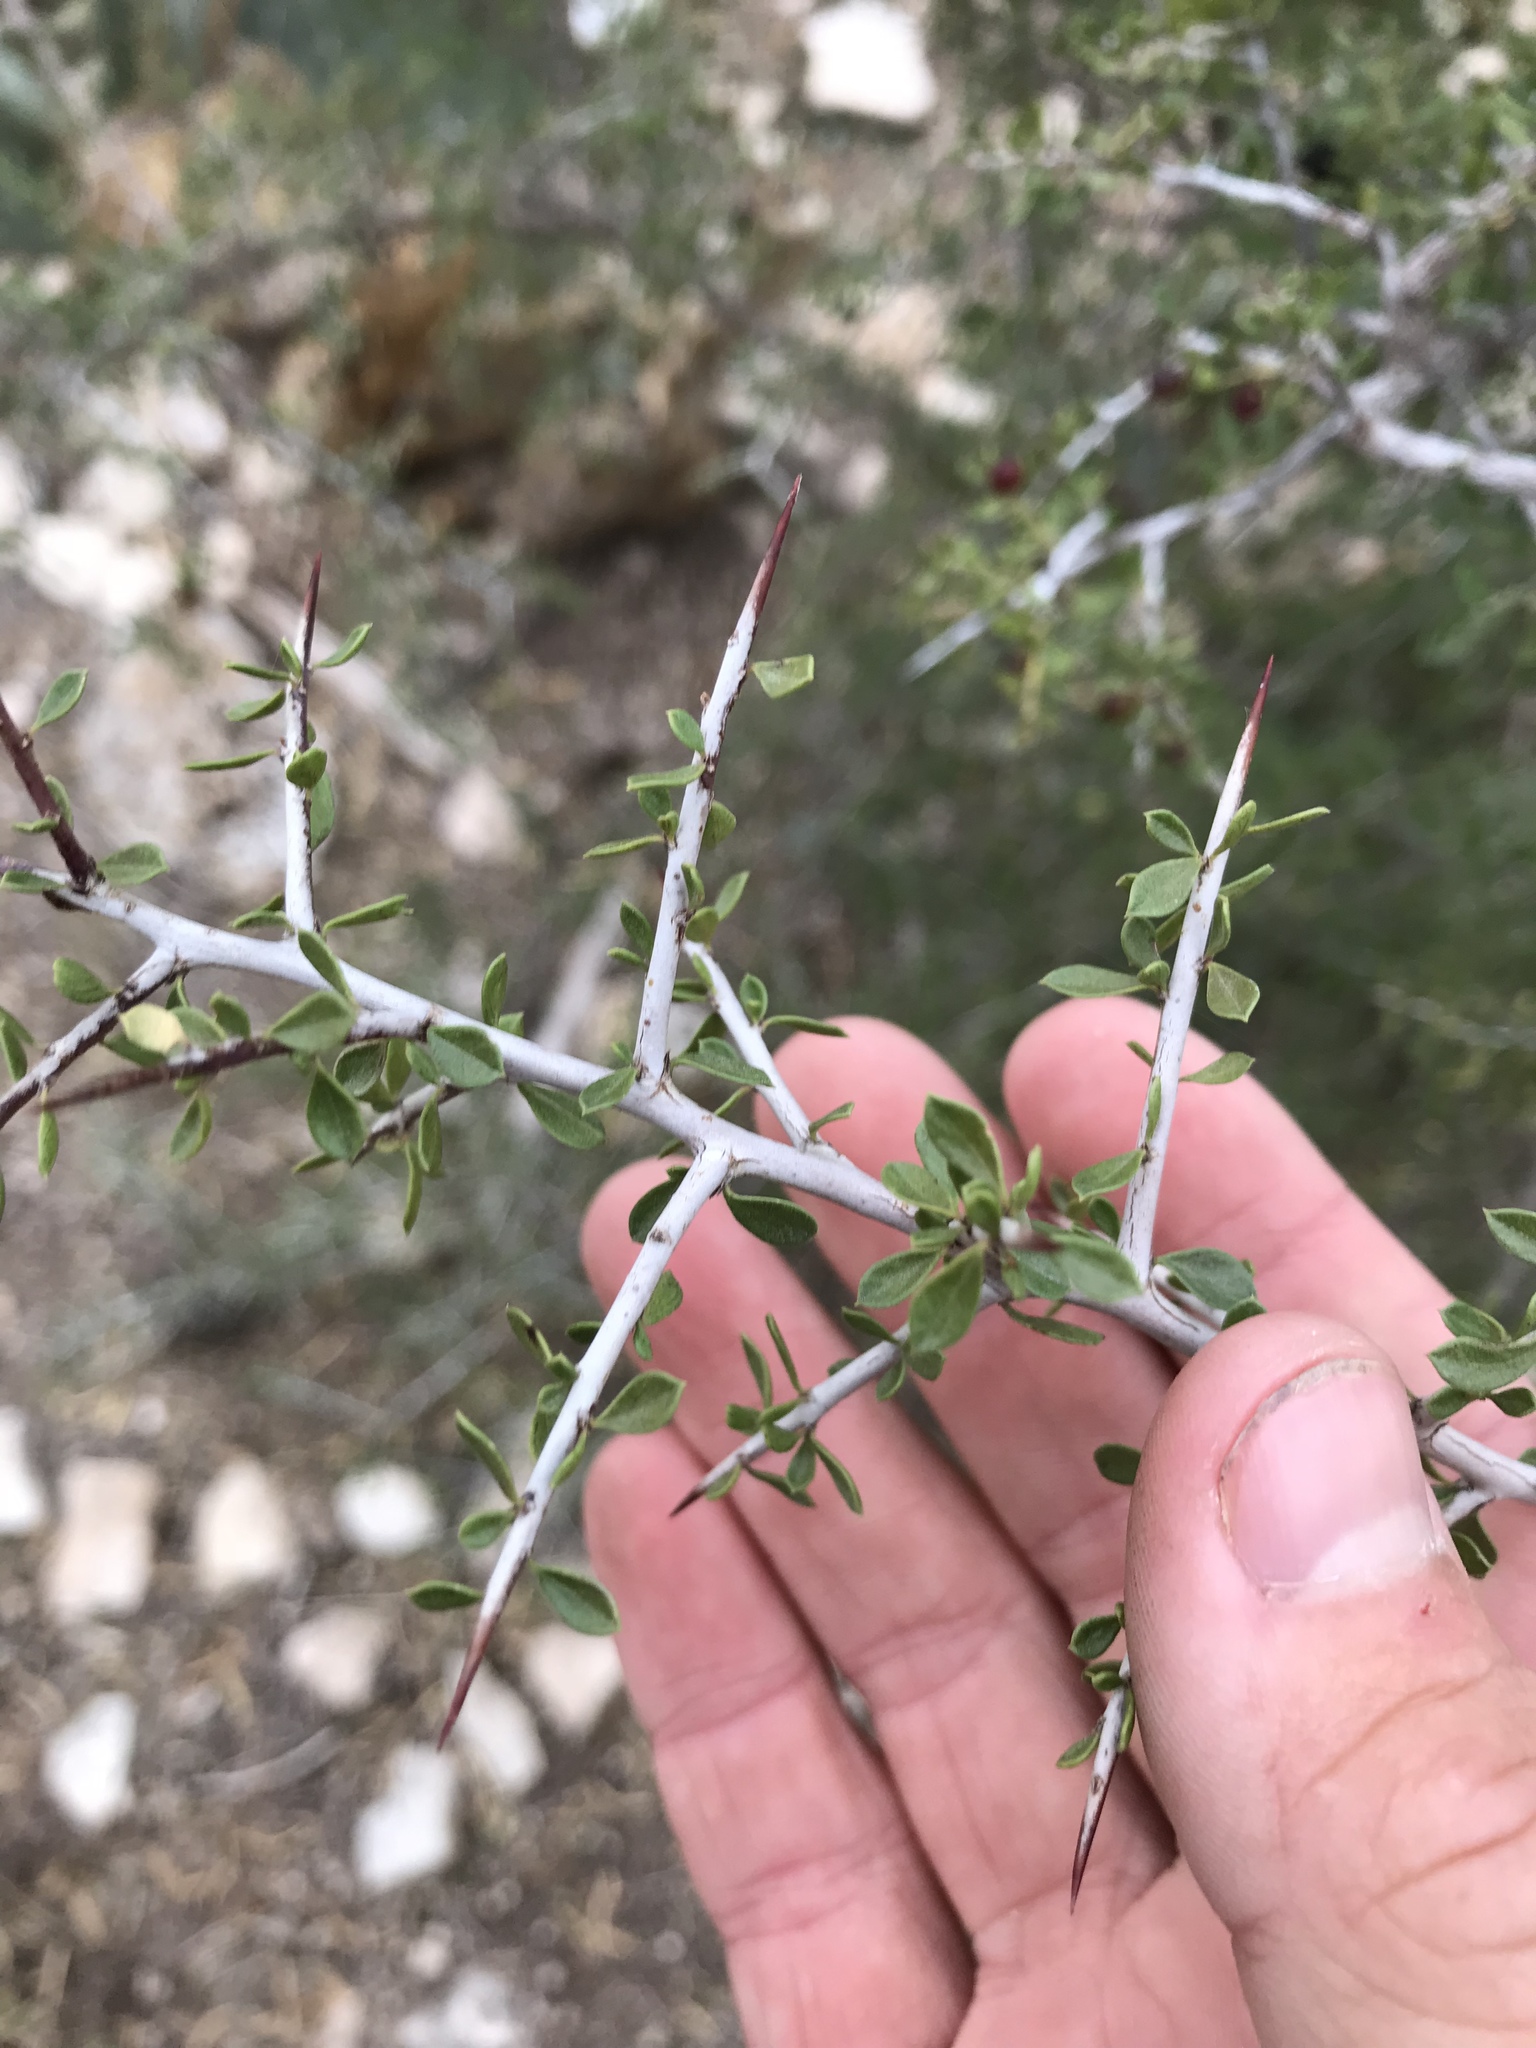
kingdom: Plantae
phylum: Tracheophyta
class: Magnoliopsida
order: Rosales
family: Rhamnaceae
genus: Condalia
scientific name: Condalia viridis
